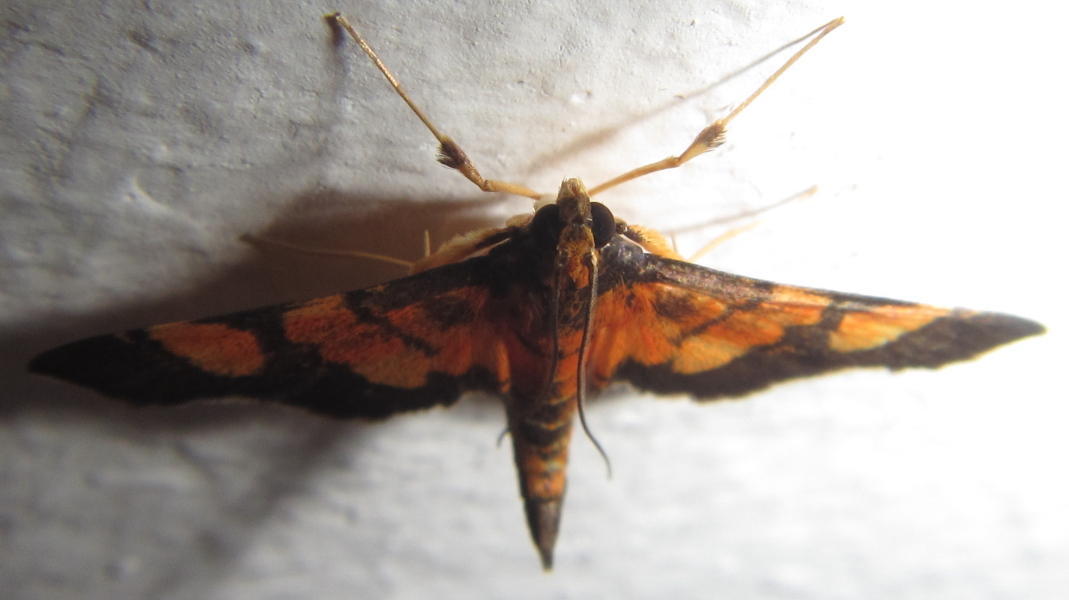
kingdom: Animalia
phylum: Arthropoda
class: Insecta
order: Lepidoptera
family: Crambidae
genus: Aethaloessa
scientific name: Aethaloessa floridalis
